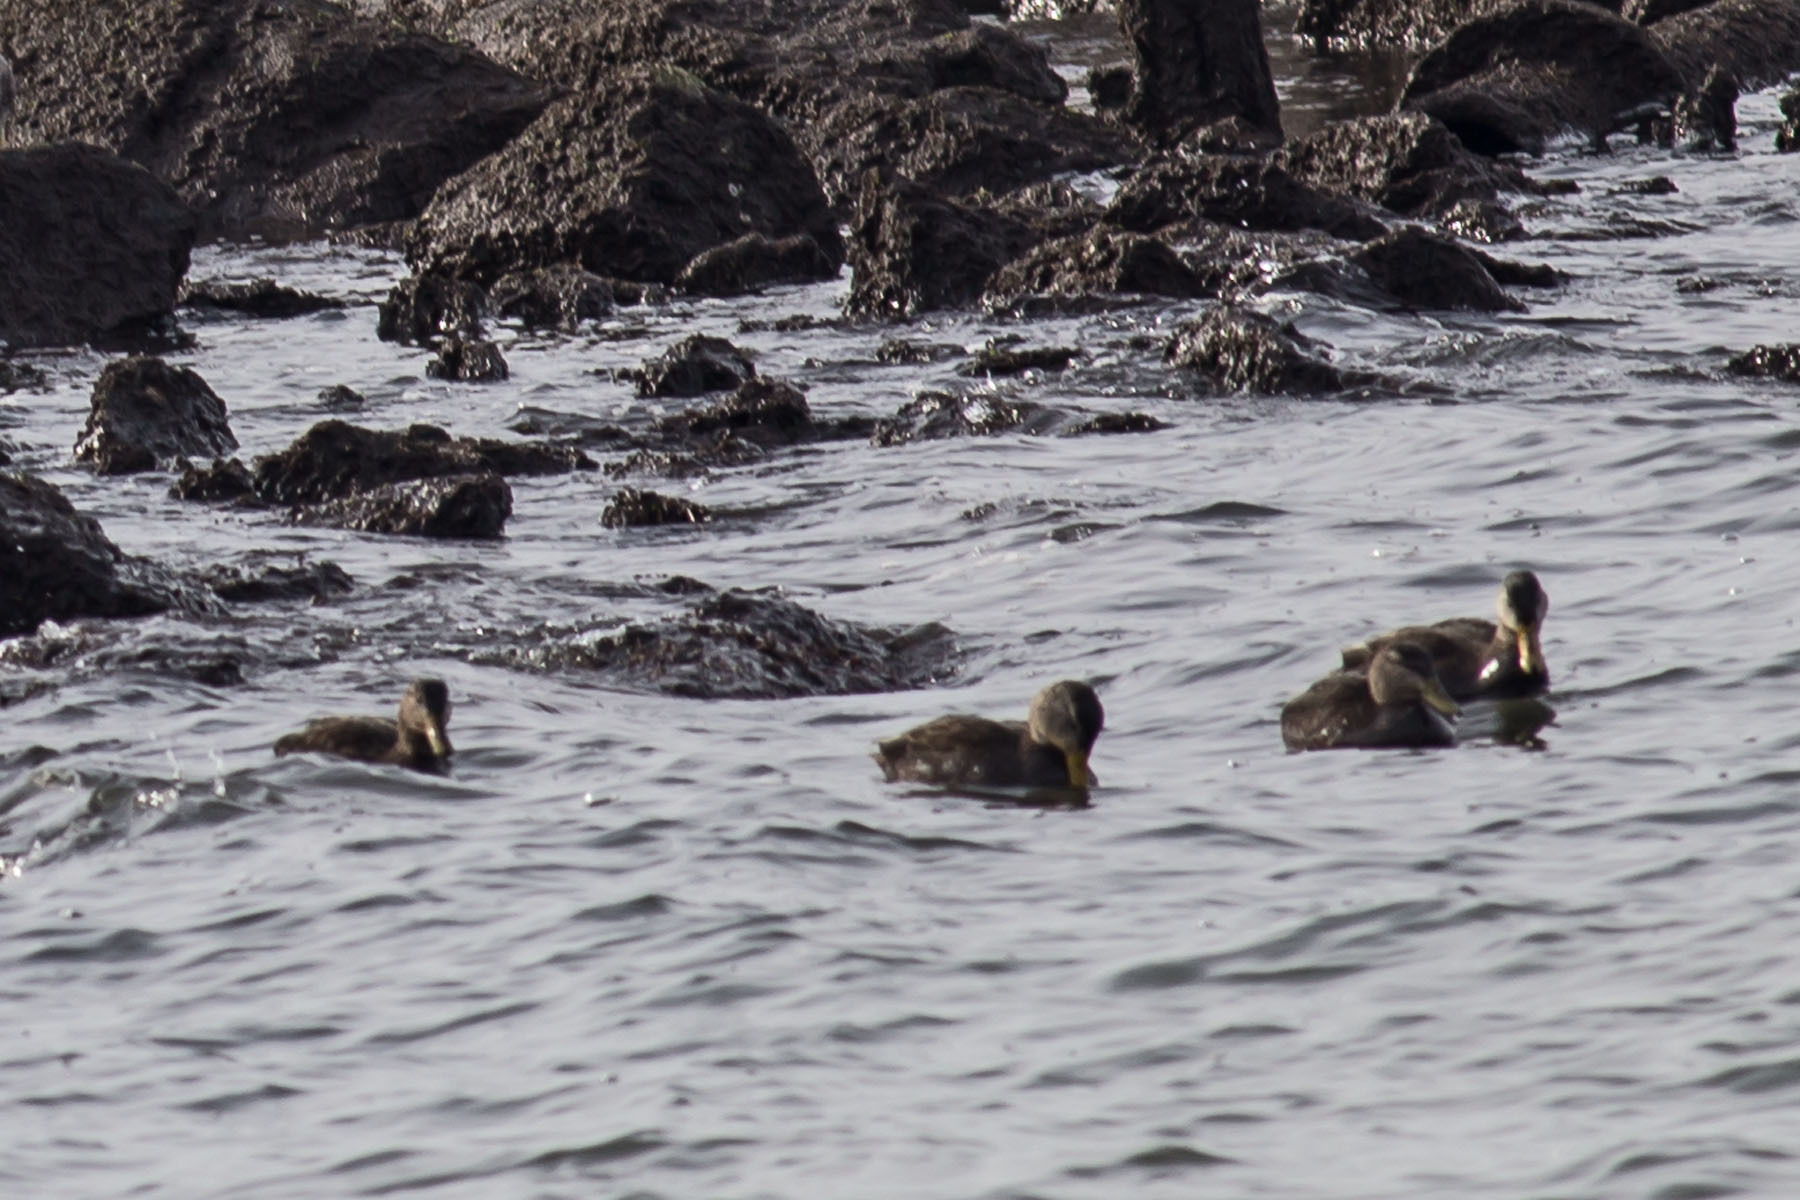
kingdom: Animalia
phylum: Chordata
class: Aves
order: Anseriformes
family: Anatidae
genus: Anas
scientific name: Anas rubripes
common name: American black duck
